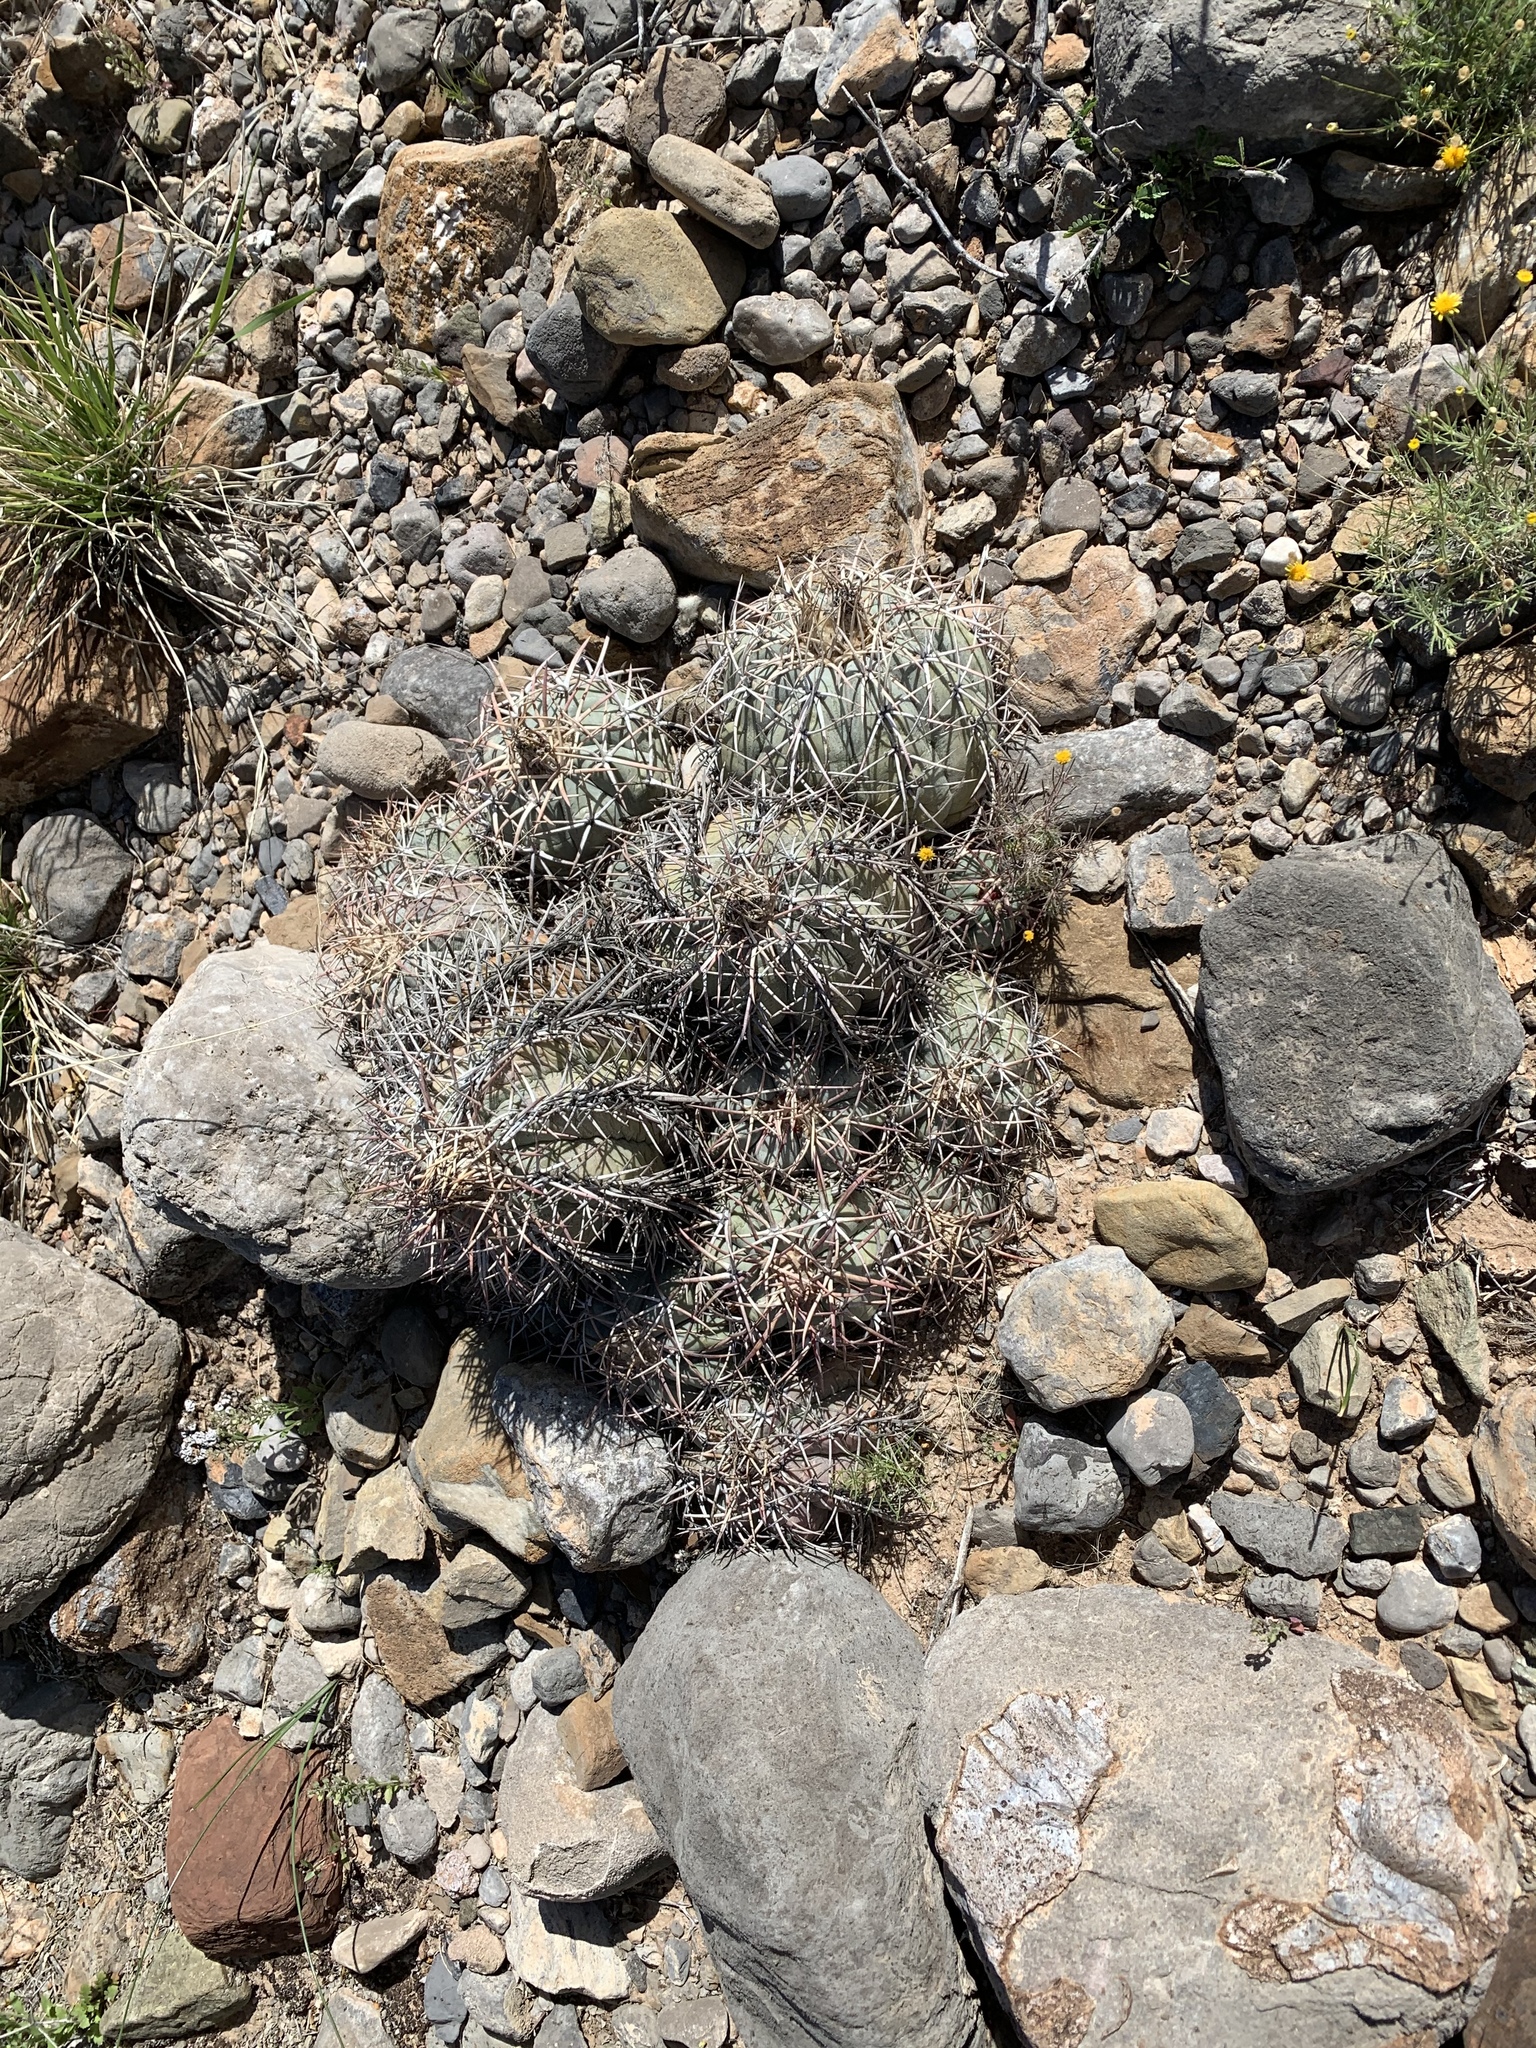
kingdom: Plantae
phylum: Tracheophyta
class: Magnoliopsida
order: Caryophyllales
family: Cactaceae
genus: Echinocactus
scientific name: Echinocactus horizonthalonius
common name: Devilshead
